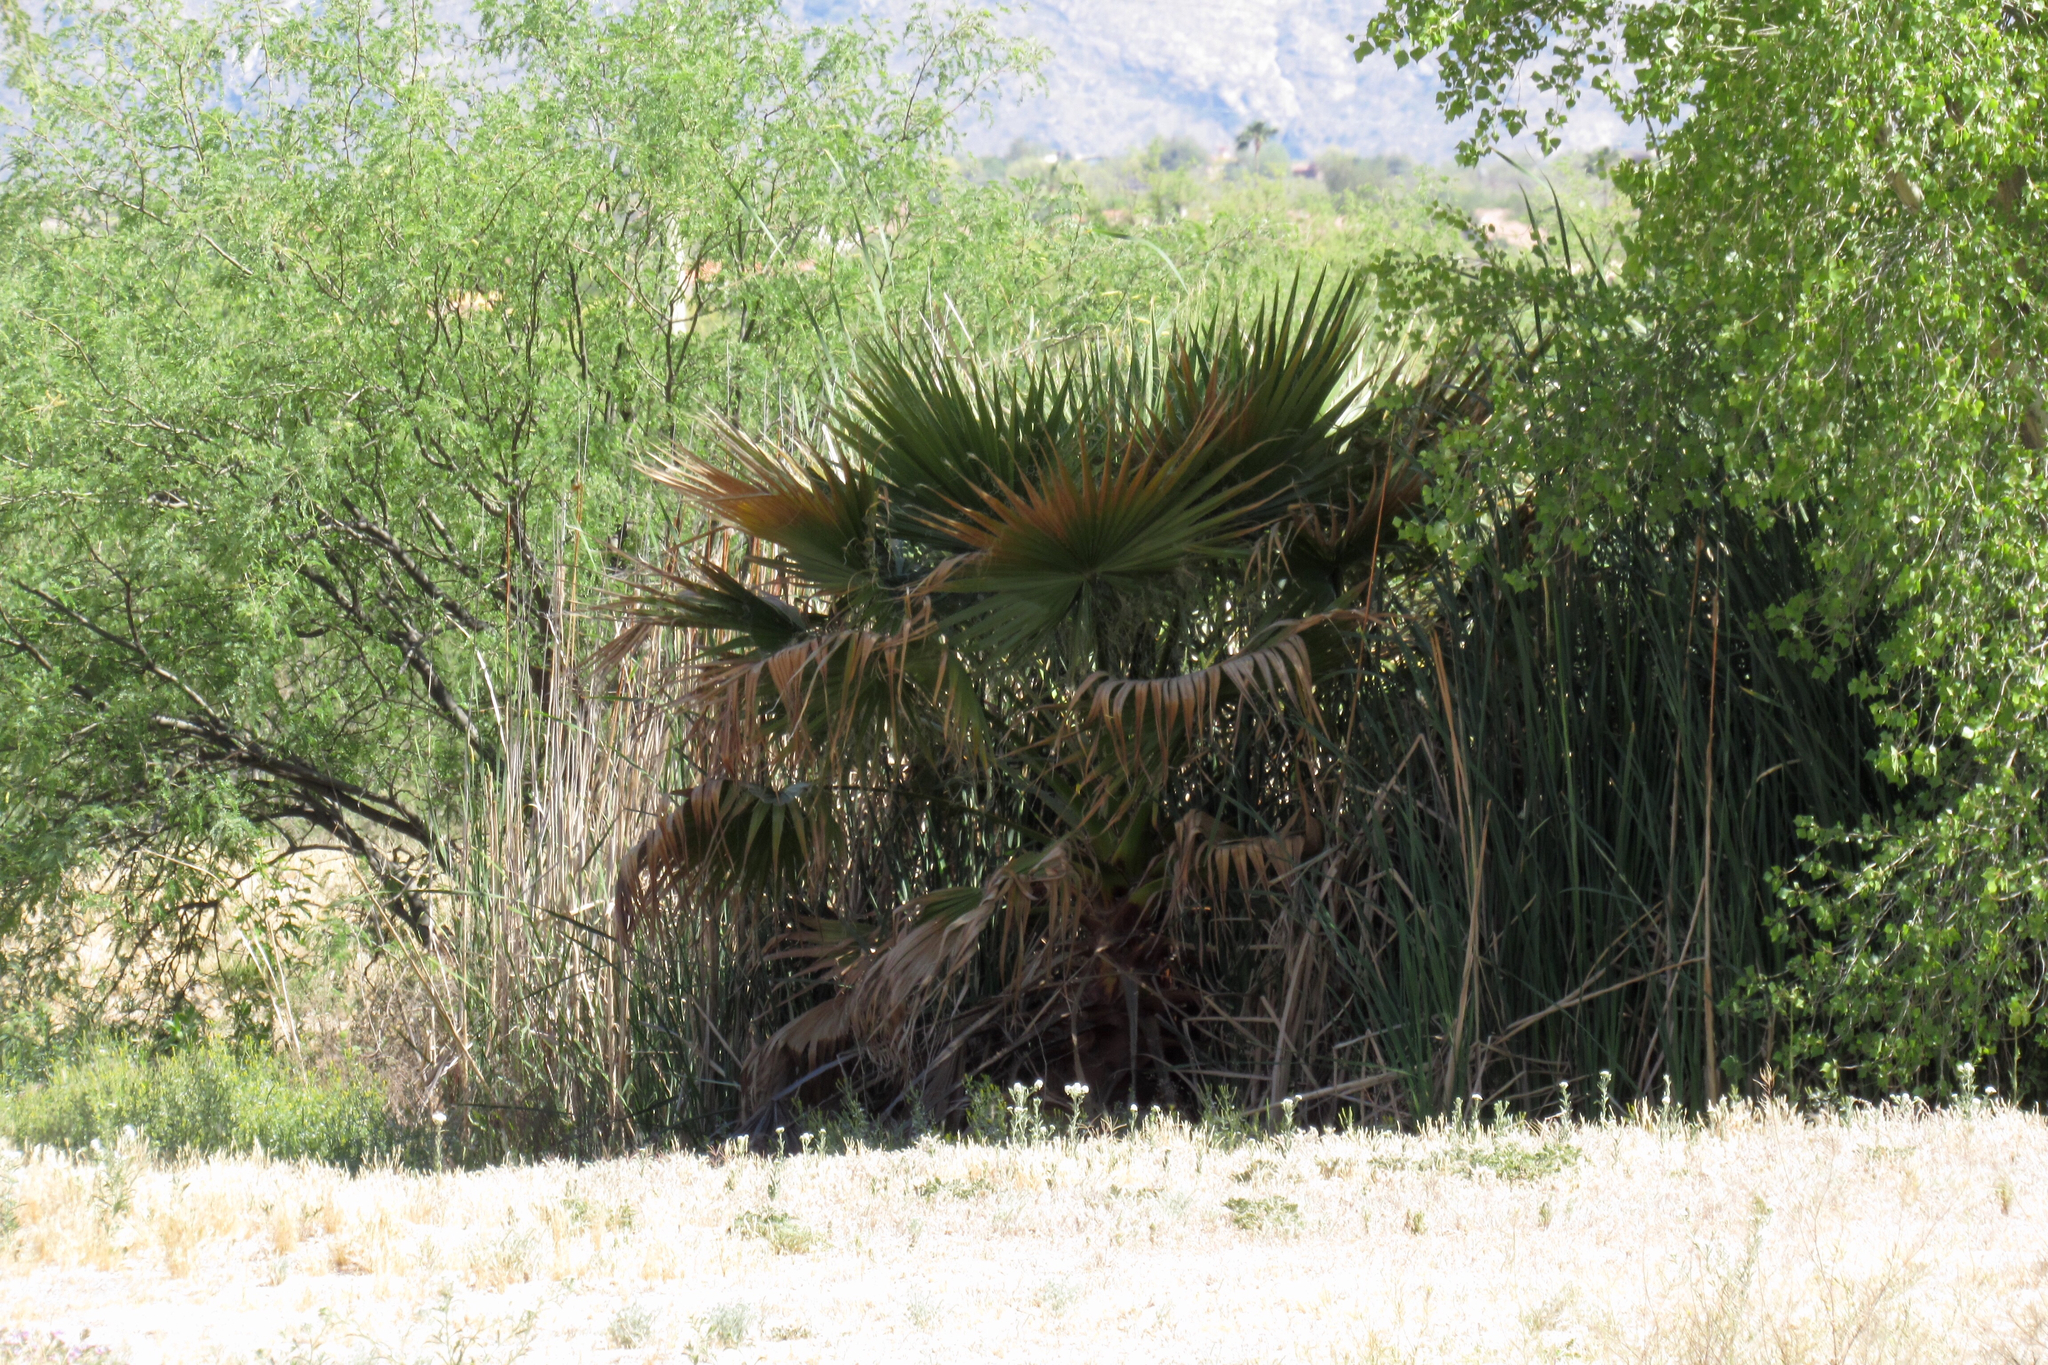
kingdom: Plantae
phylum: Tracheophyta
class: Liliopsida
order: Arecales
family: Arecaceae
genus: Washingtonia
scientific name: Washingtonia filifera
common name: California fan palm
